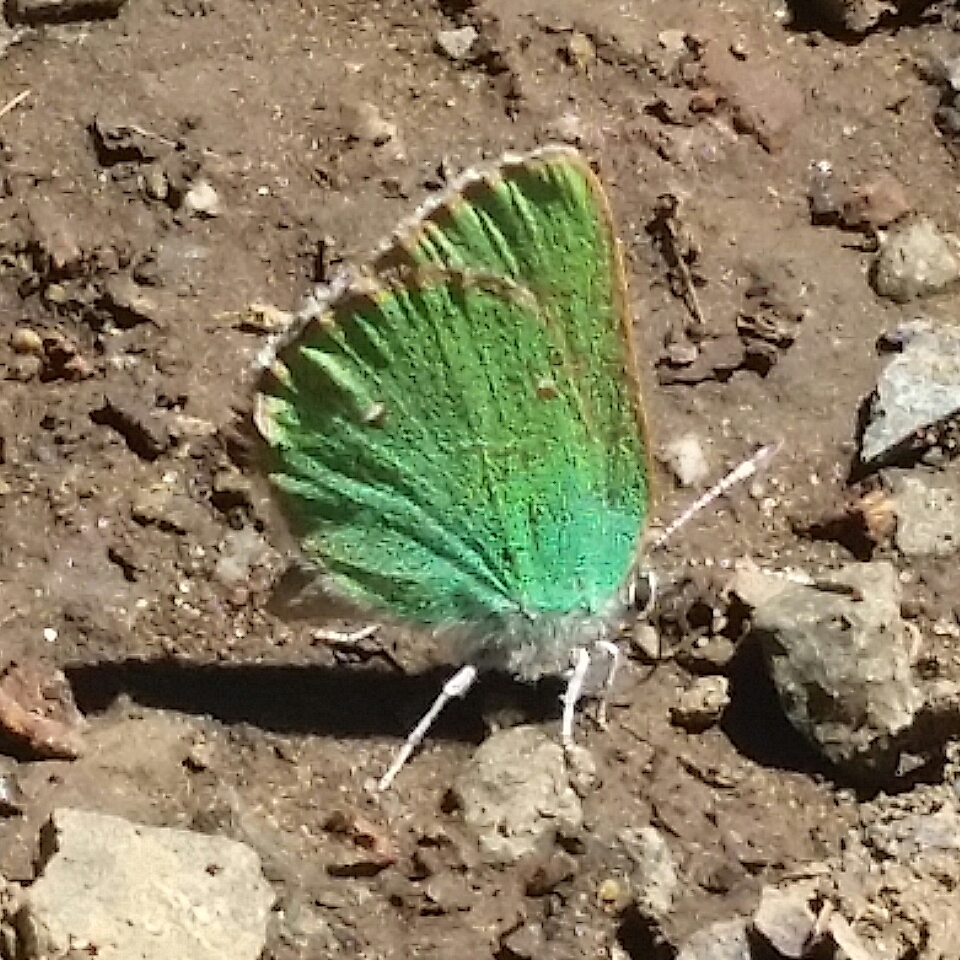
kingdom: Animalia
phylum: Arthropoda
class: Insecta
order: Lepidoptera
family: Lycaenidae
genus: Callophrys
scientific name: Callophrys dumetorum
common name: Bramble hairstreak
